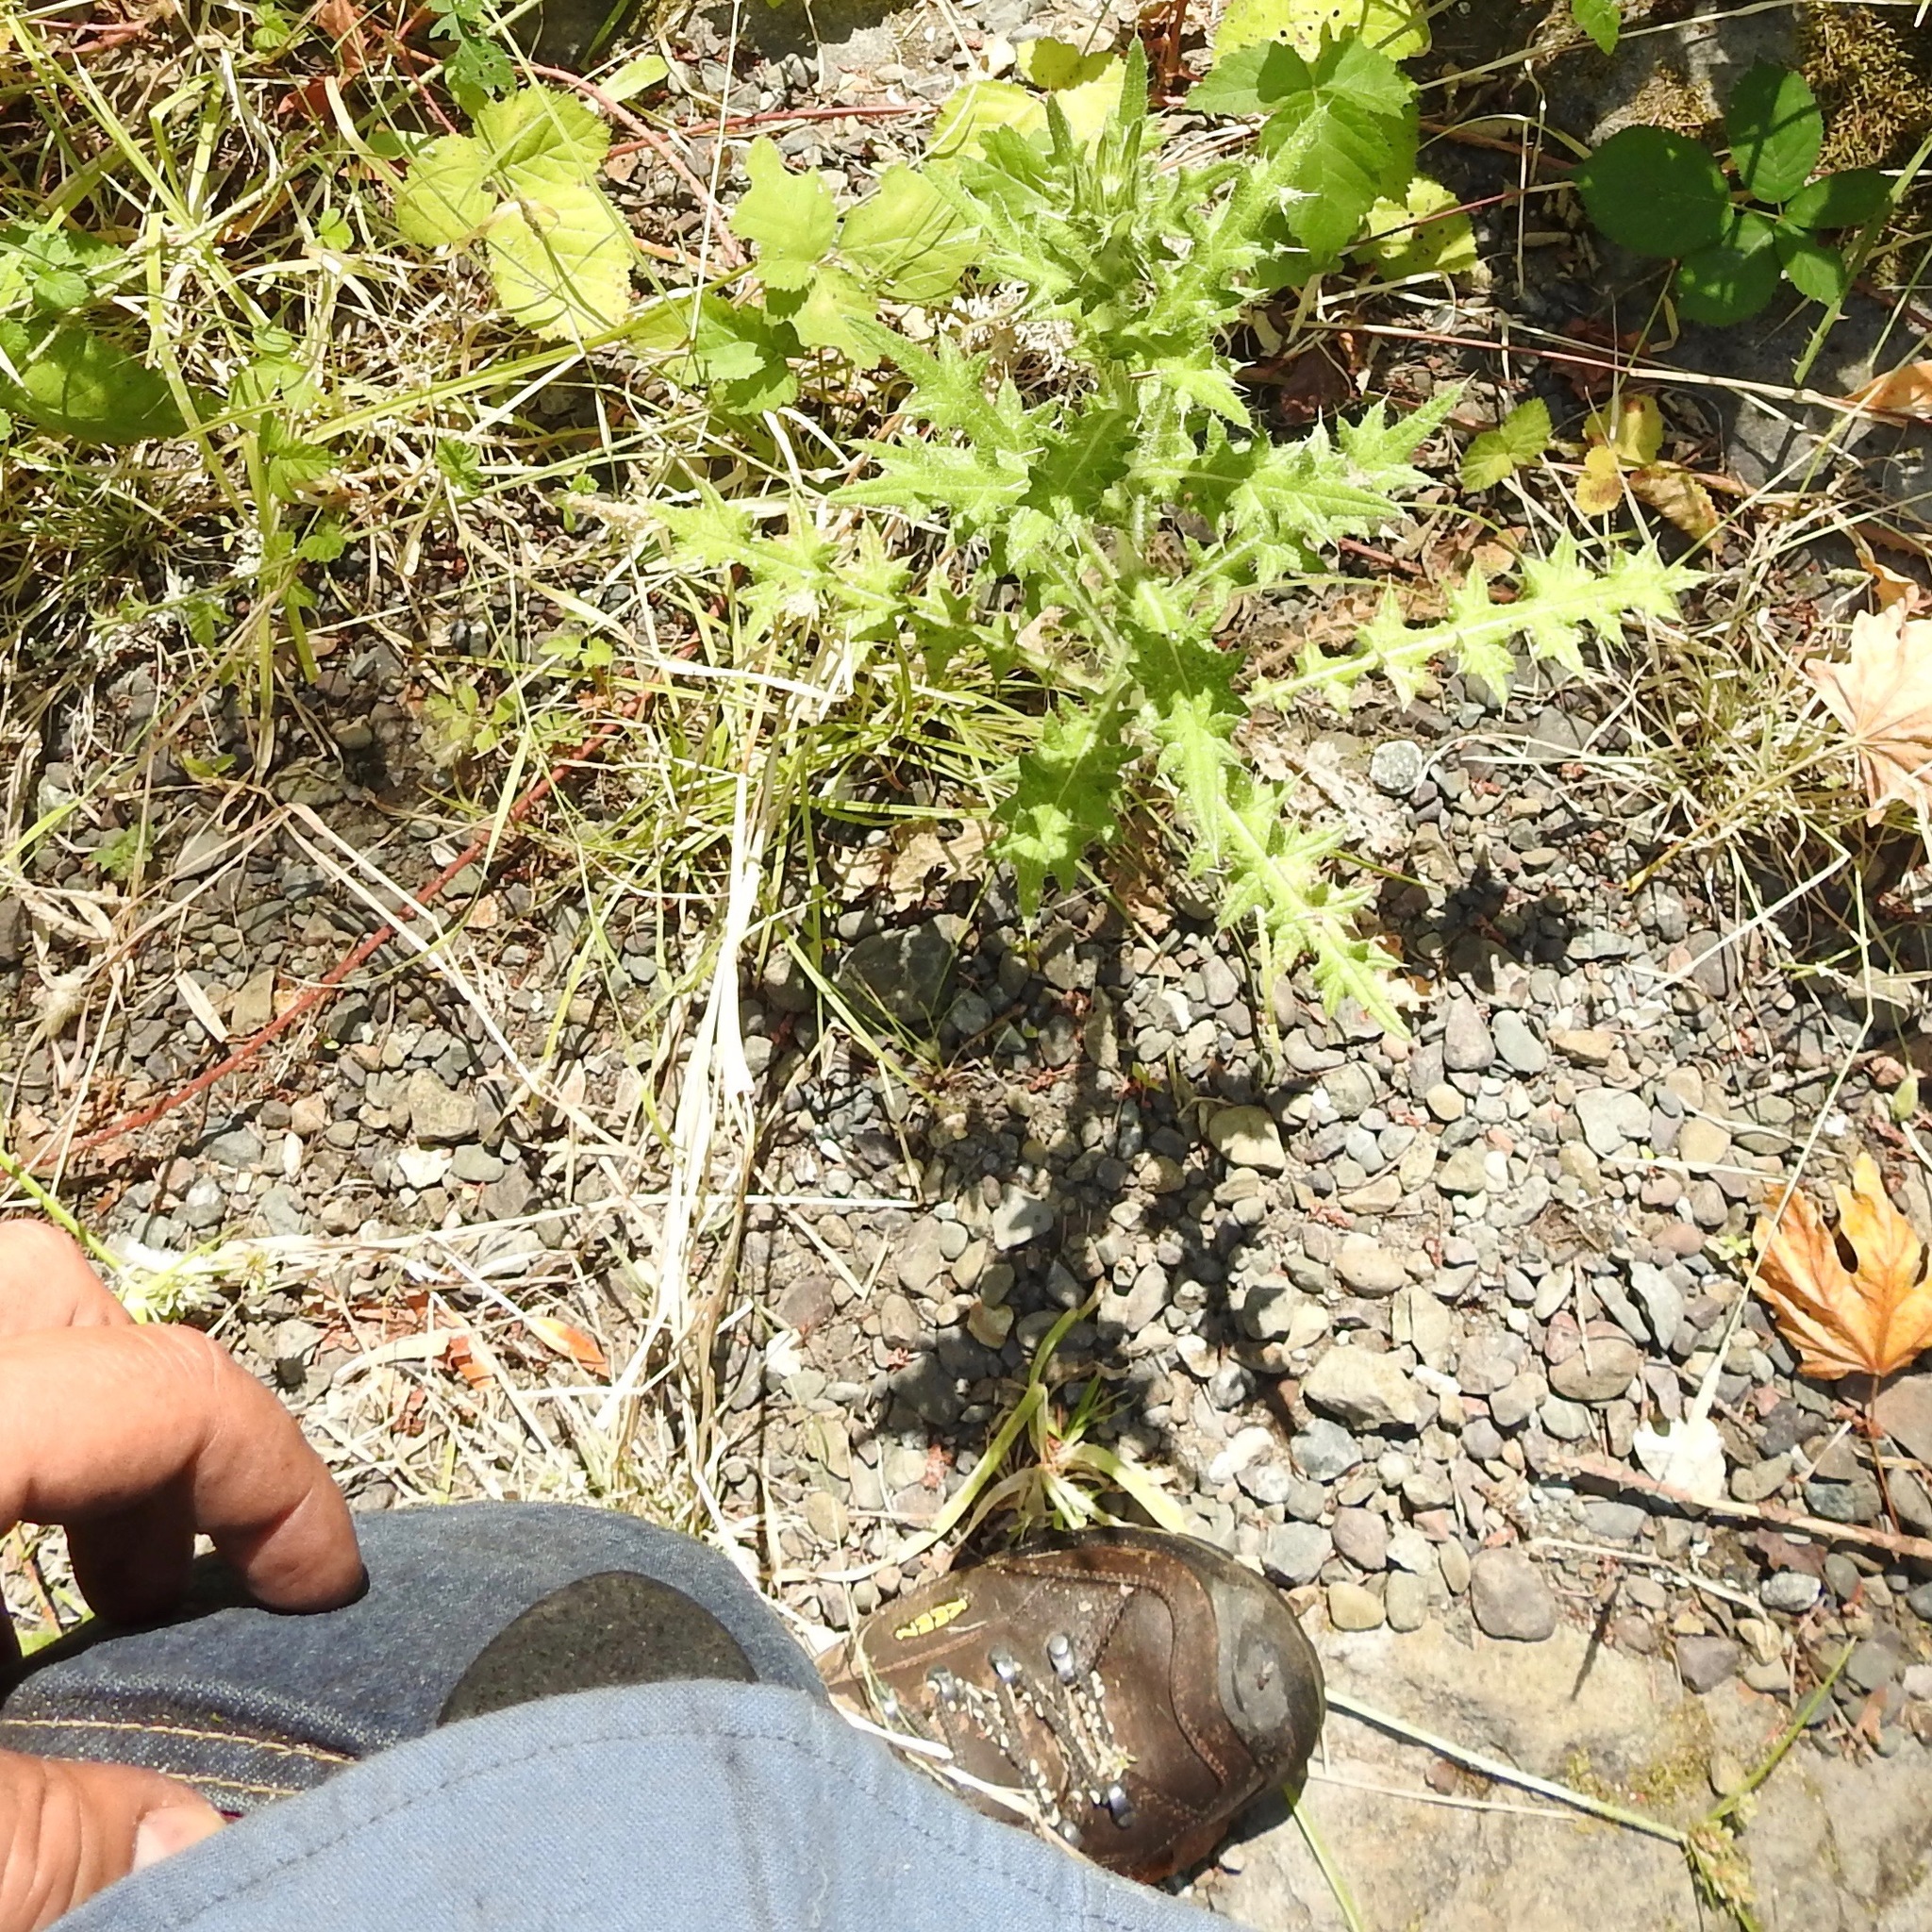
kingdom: Plantae
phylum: Tracheophyta
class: Magnoliopsida
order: Asterales
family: Asteraceae
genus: Cirsium
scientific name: Cirsium vulgare
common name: Bull thistle
